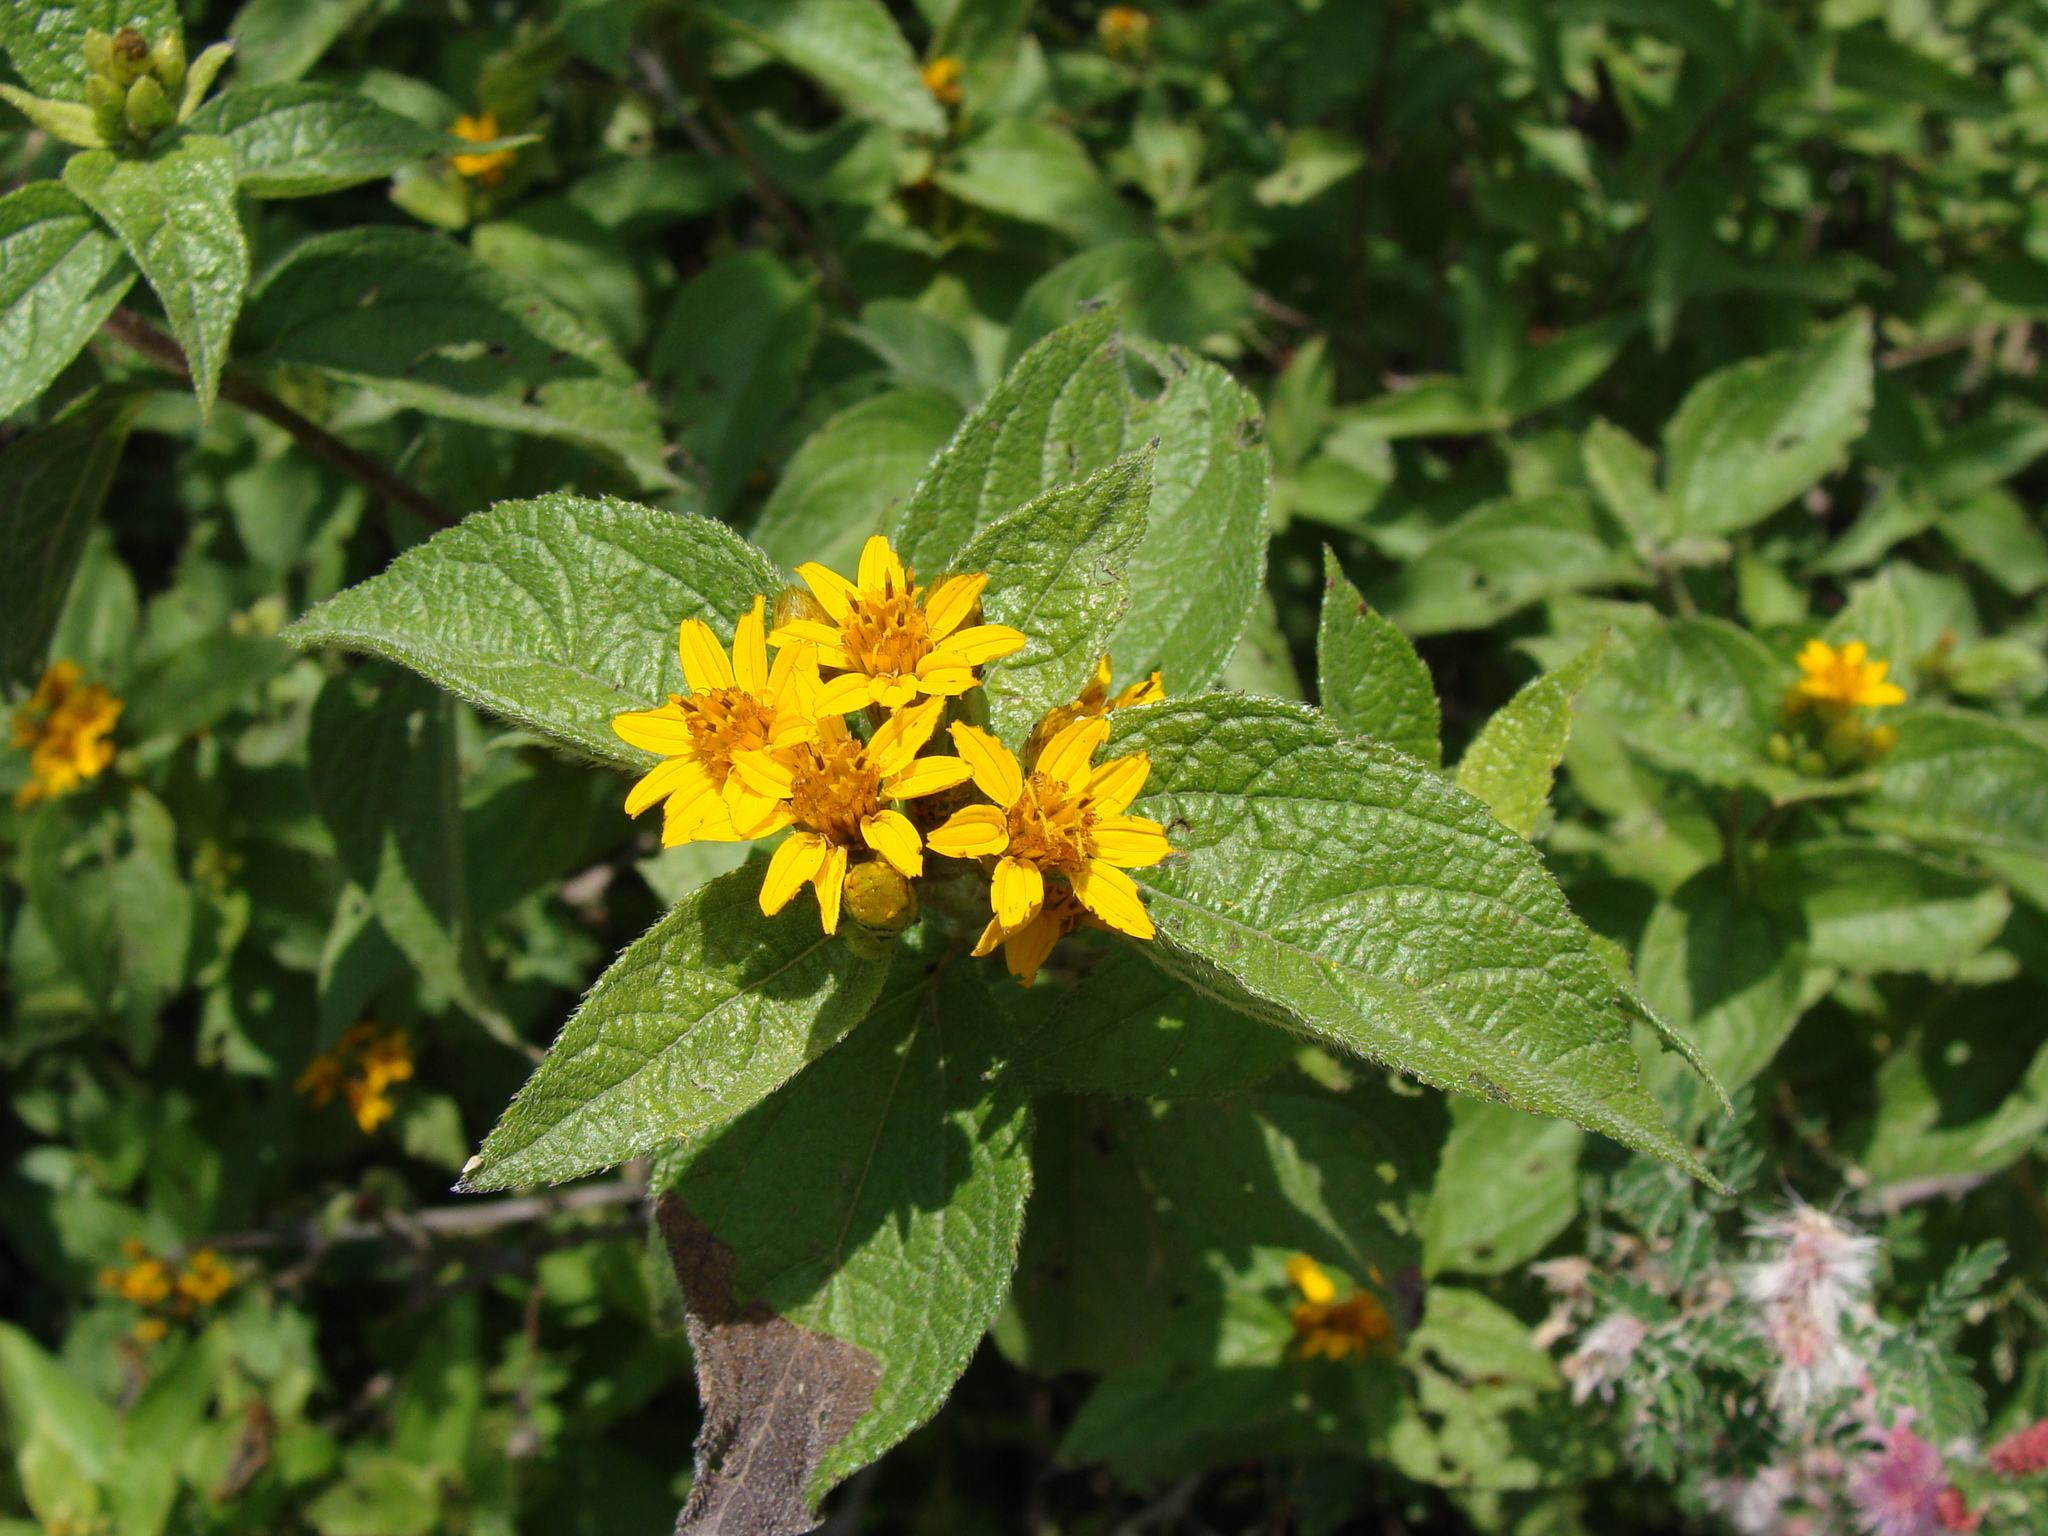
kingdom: Plantae
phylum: Tracheophyta
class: Magnoliopsida
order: Asterales
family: Asteraceae
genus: Lasianthaea
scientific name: Lasianthaea ceanothifolia
